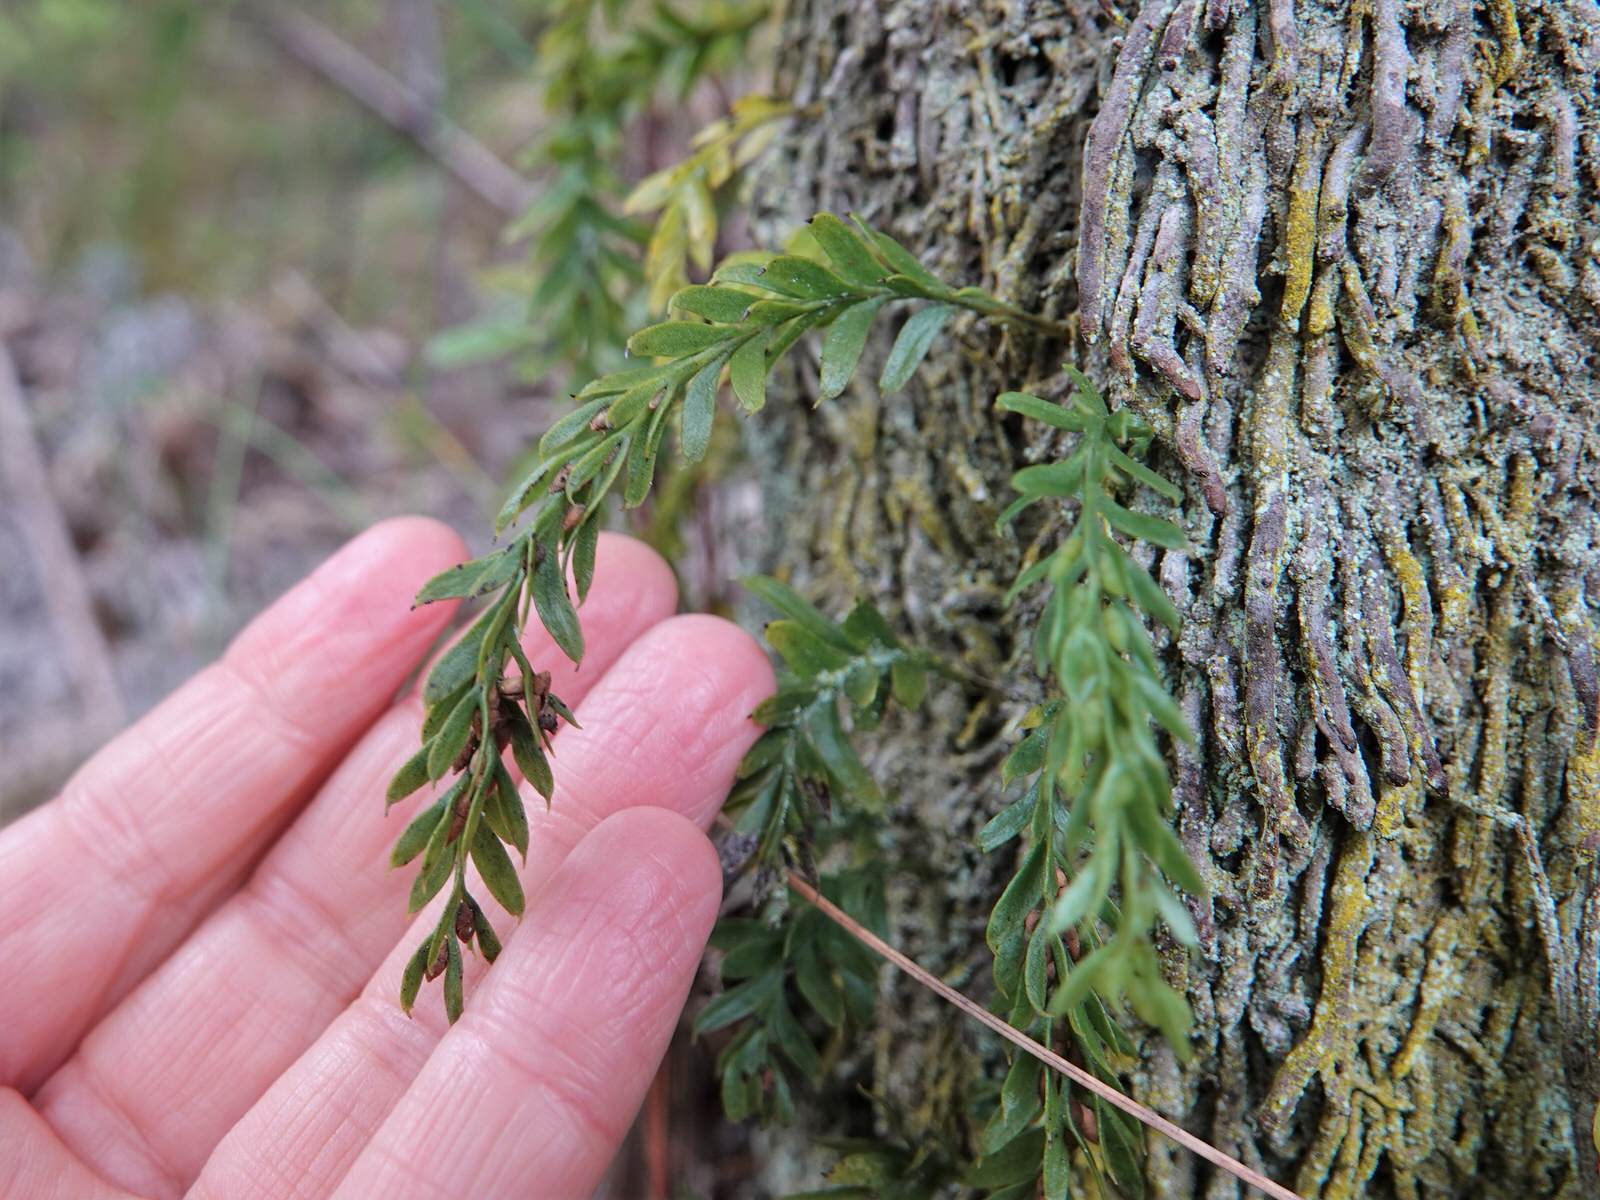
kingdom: Plantae
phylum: Tracheophyta
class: Polypodiopsida
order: Psilotales
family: Psilotaceae
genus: Tmesipteris
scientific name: Tmesipteris tannensis
